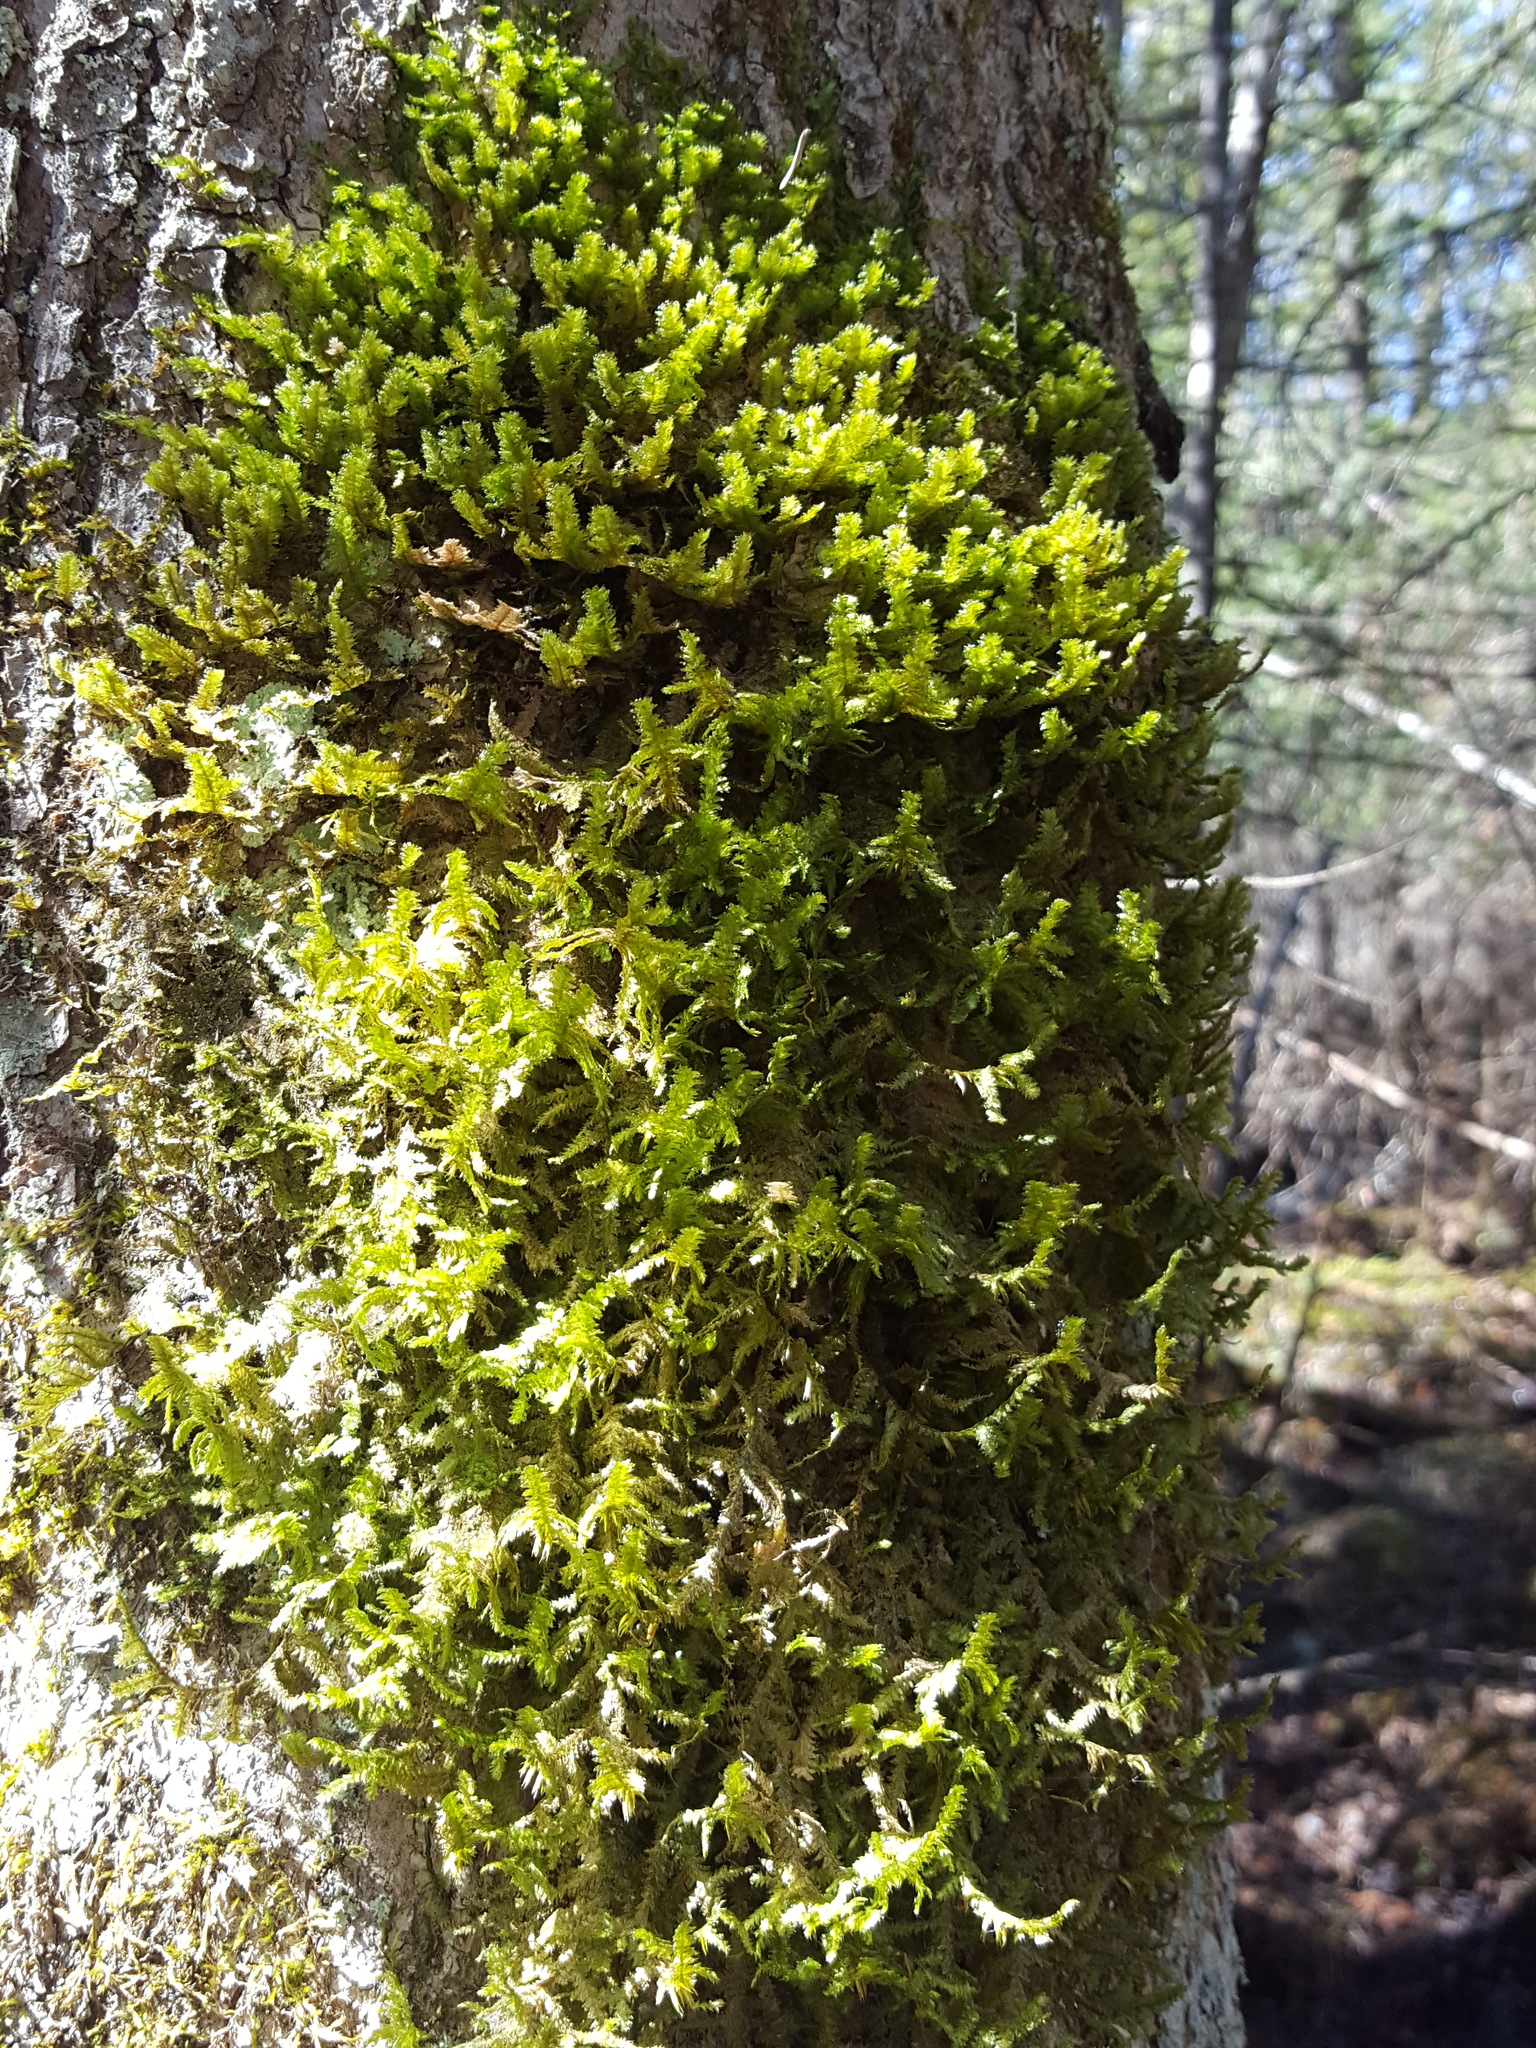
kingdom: Plantae
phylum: Bryophyta
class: Bryopsida
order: Hypnales
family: Neckeraceae
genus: Neckera
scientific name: Neckera pennata
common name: Feathery neckera
